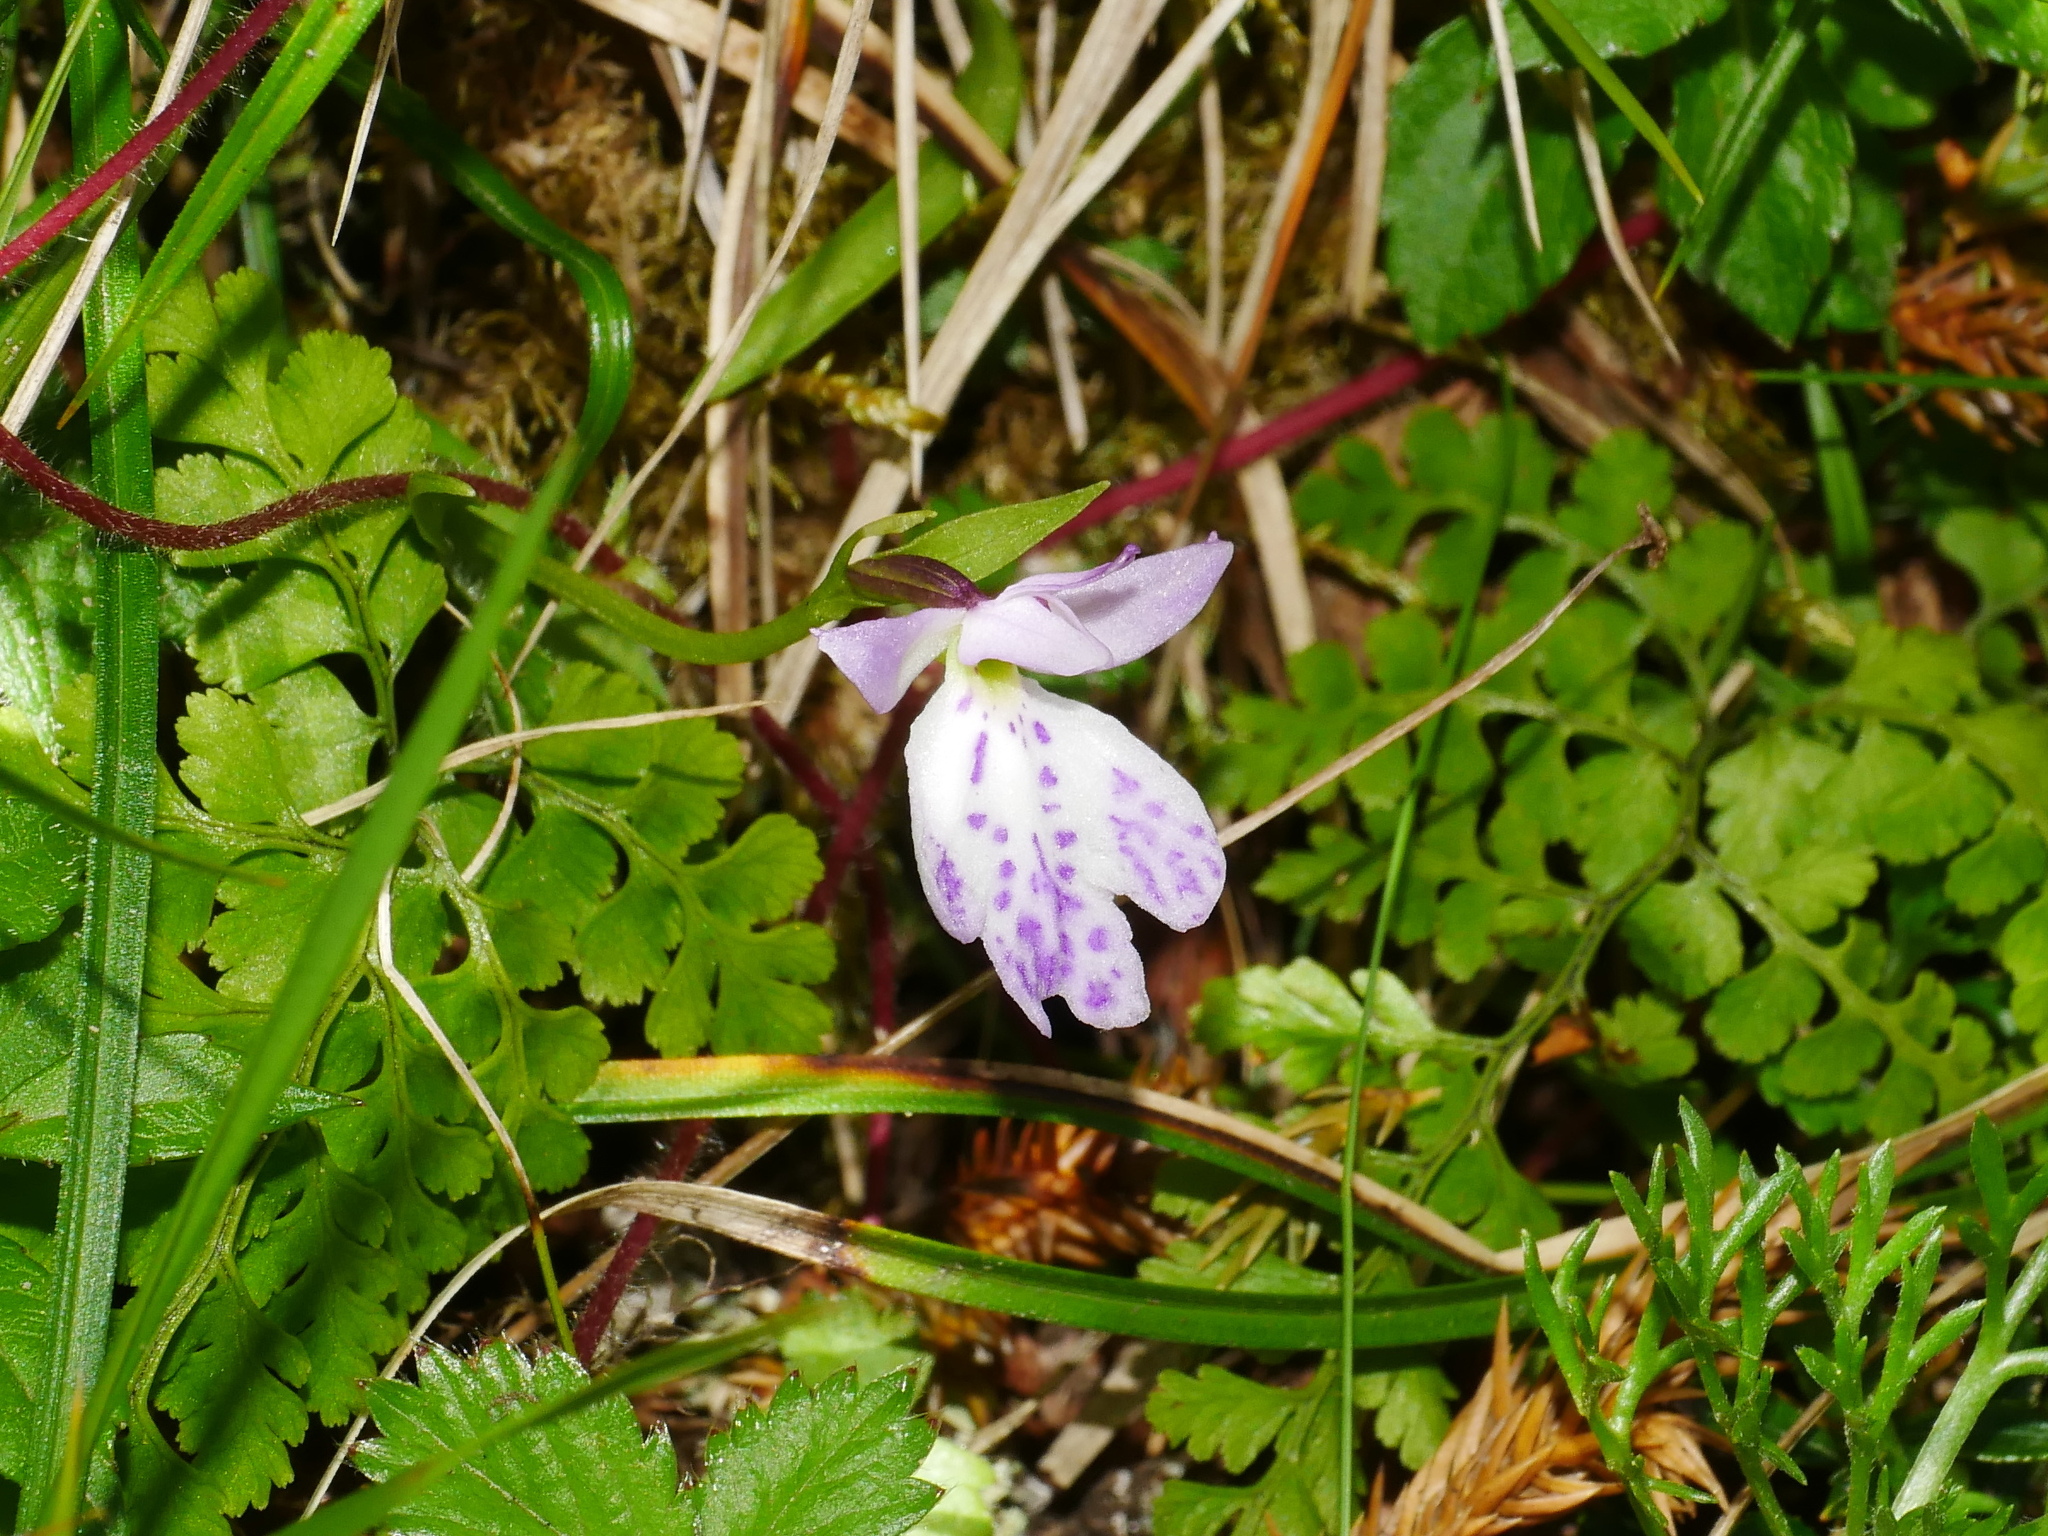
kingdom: Plantae
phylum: Tracheophyta
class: Liliopsida
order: Asparagales
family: Orchidaceae
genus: Hemipilia
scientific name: Hemipilia tominagae
